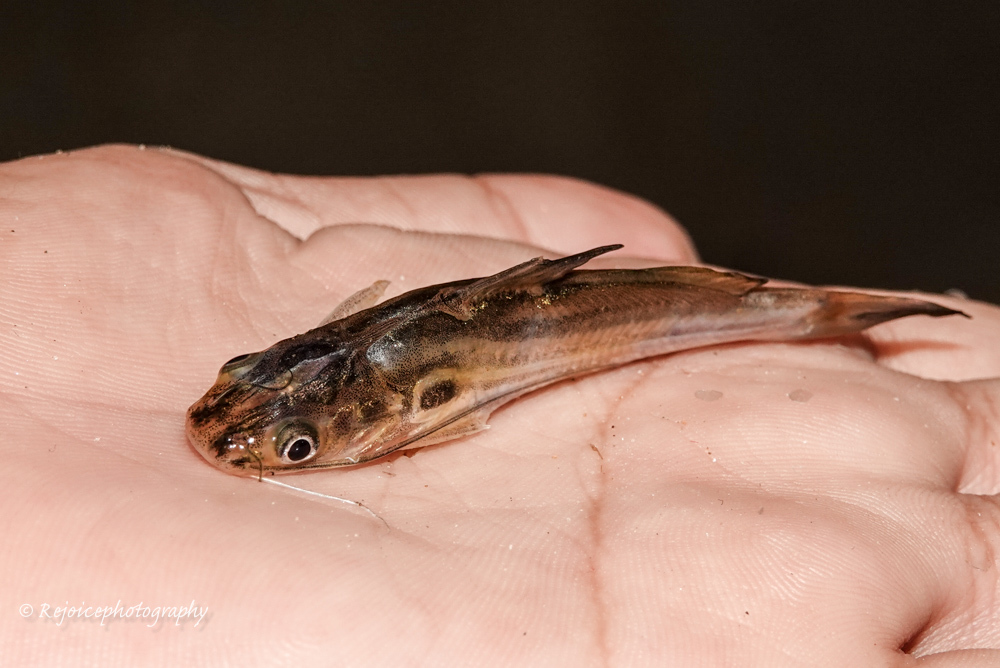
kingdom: Animalia
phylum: Chordata
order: Siluriformes
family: Bagridae
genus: Mystus
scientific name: Mystus tengara
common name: Stripped dwarf catfish
